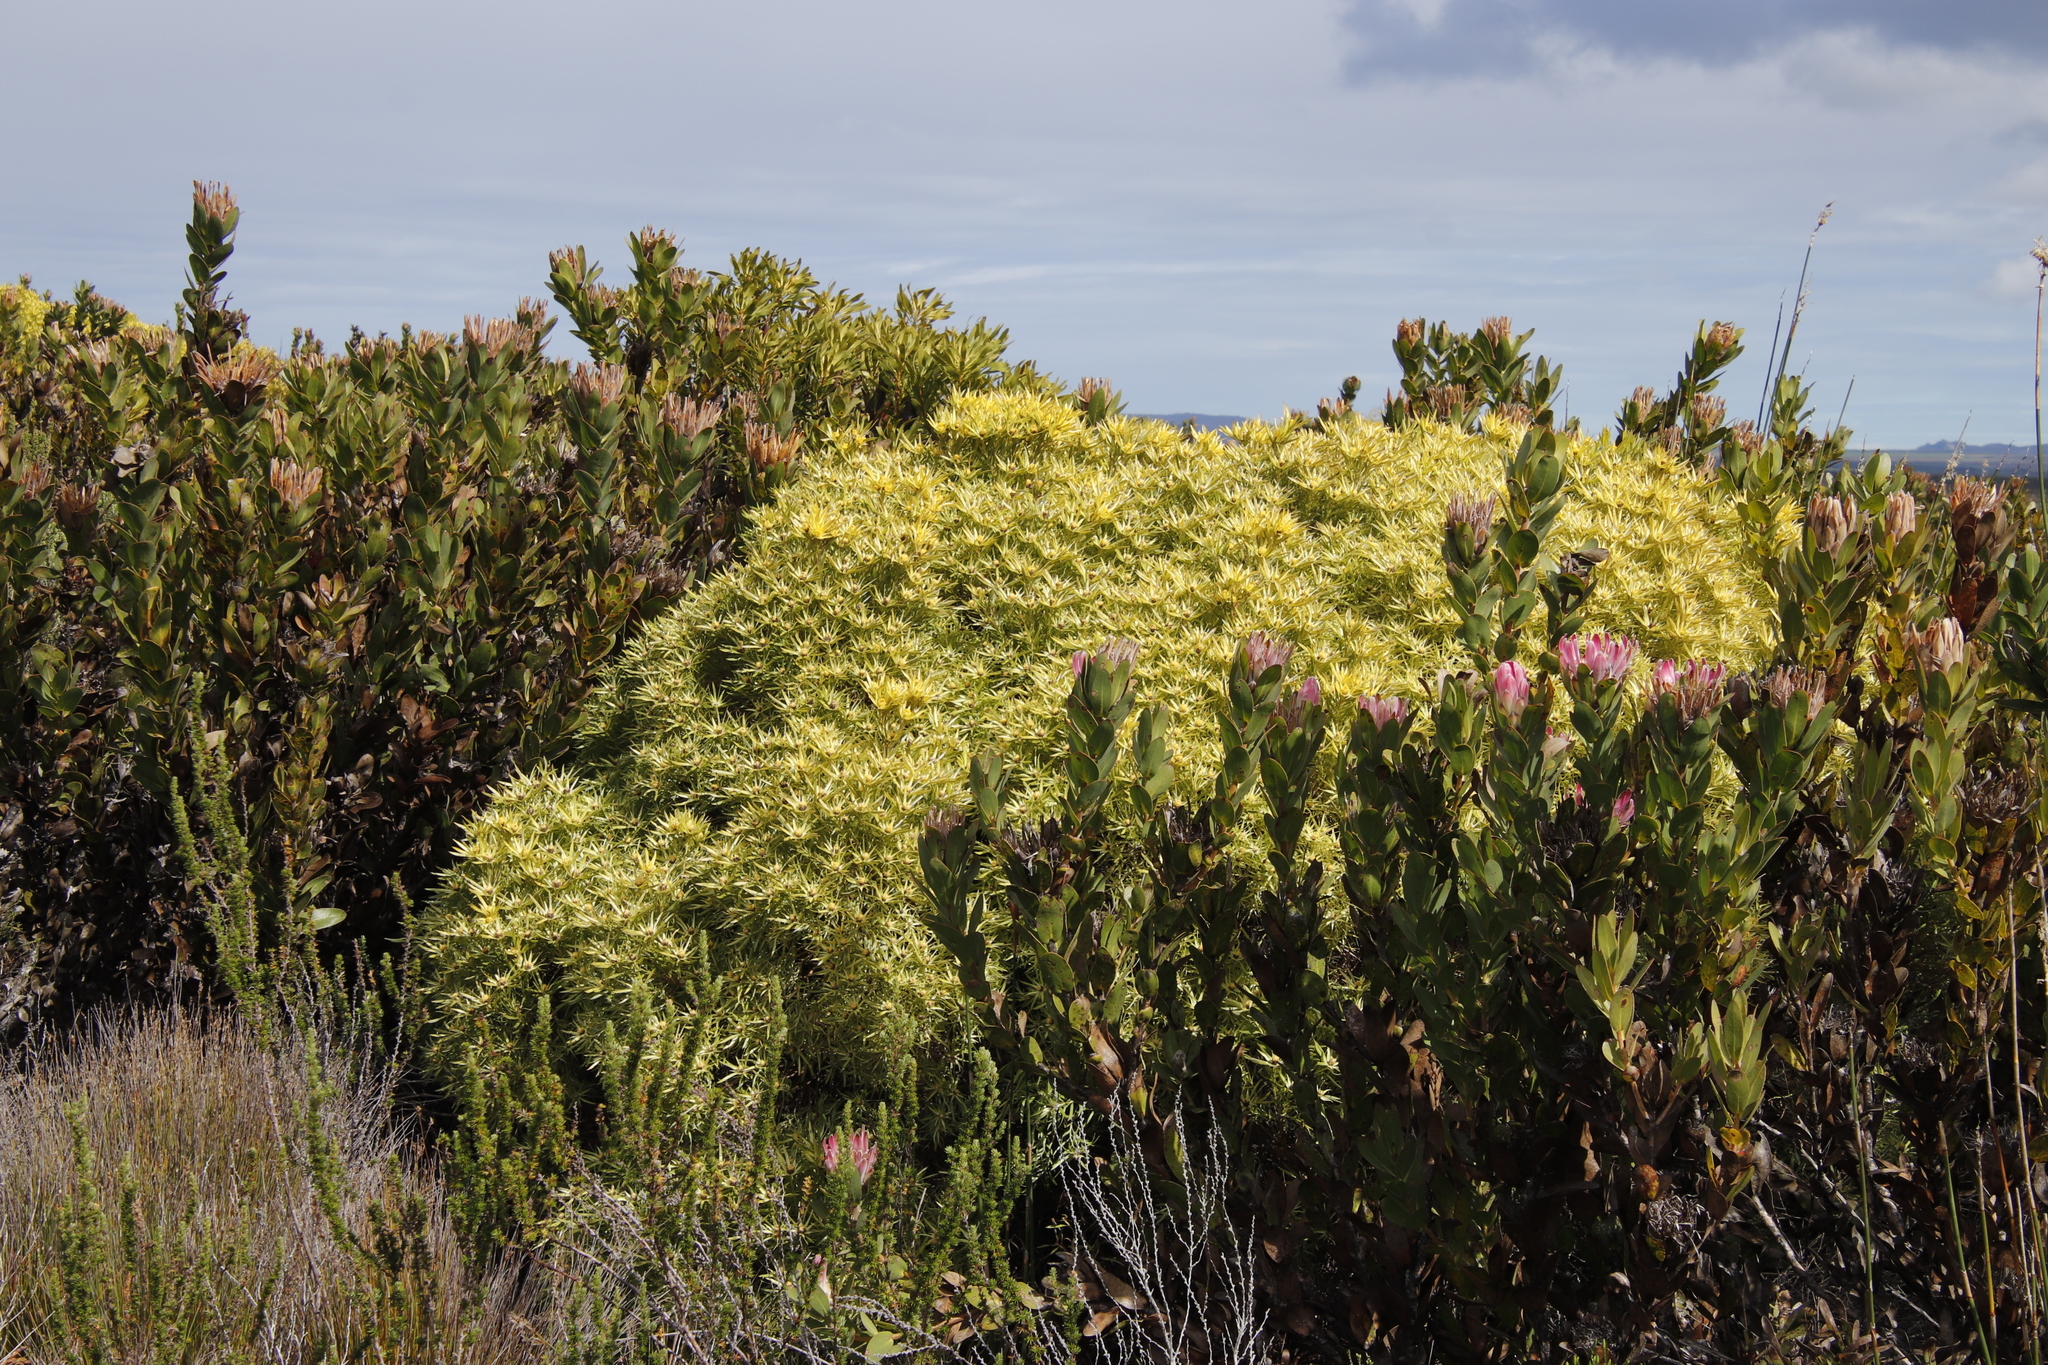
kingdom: Plantae
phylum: Tracheophyta
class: Magnoliopsida
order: Proteales
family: Proteaceae
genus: Leucadendron
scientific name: Leucadendron coniferum
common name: Dune conebush
